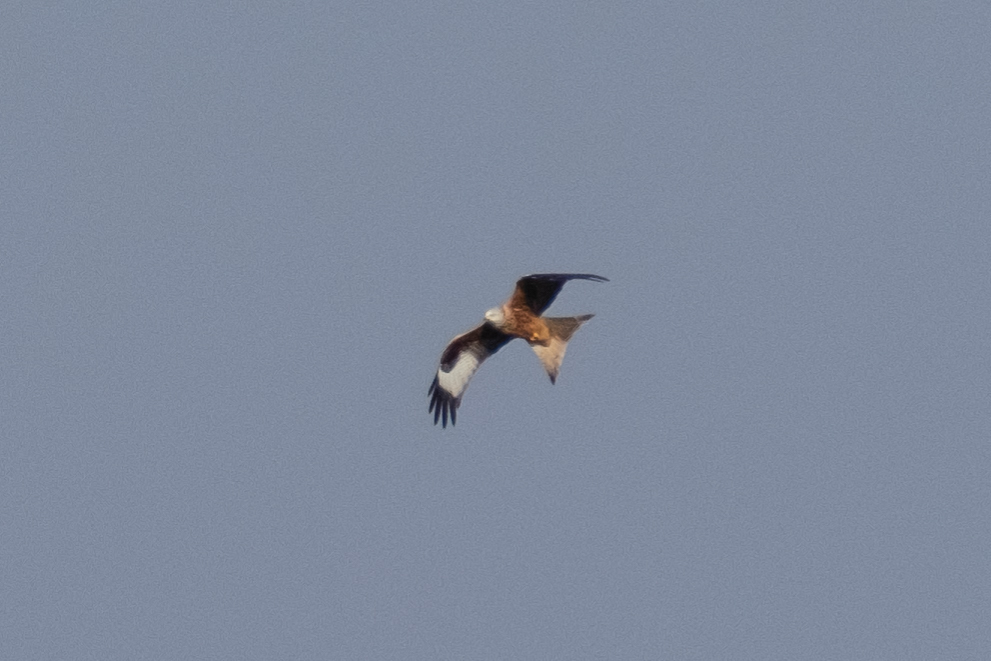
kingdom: Animalia
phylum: Chordata
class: Aves
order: Accipitriformes
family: Accipitridae
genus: Milvus
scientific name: Milvus milvus
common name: Red kite
